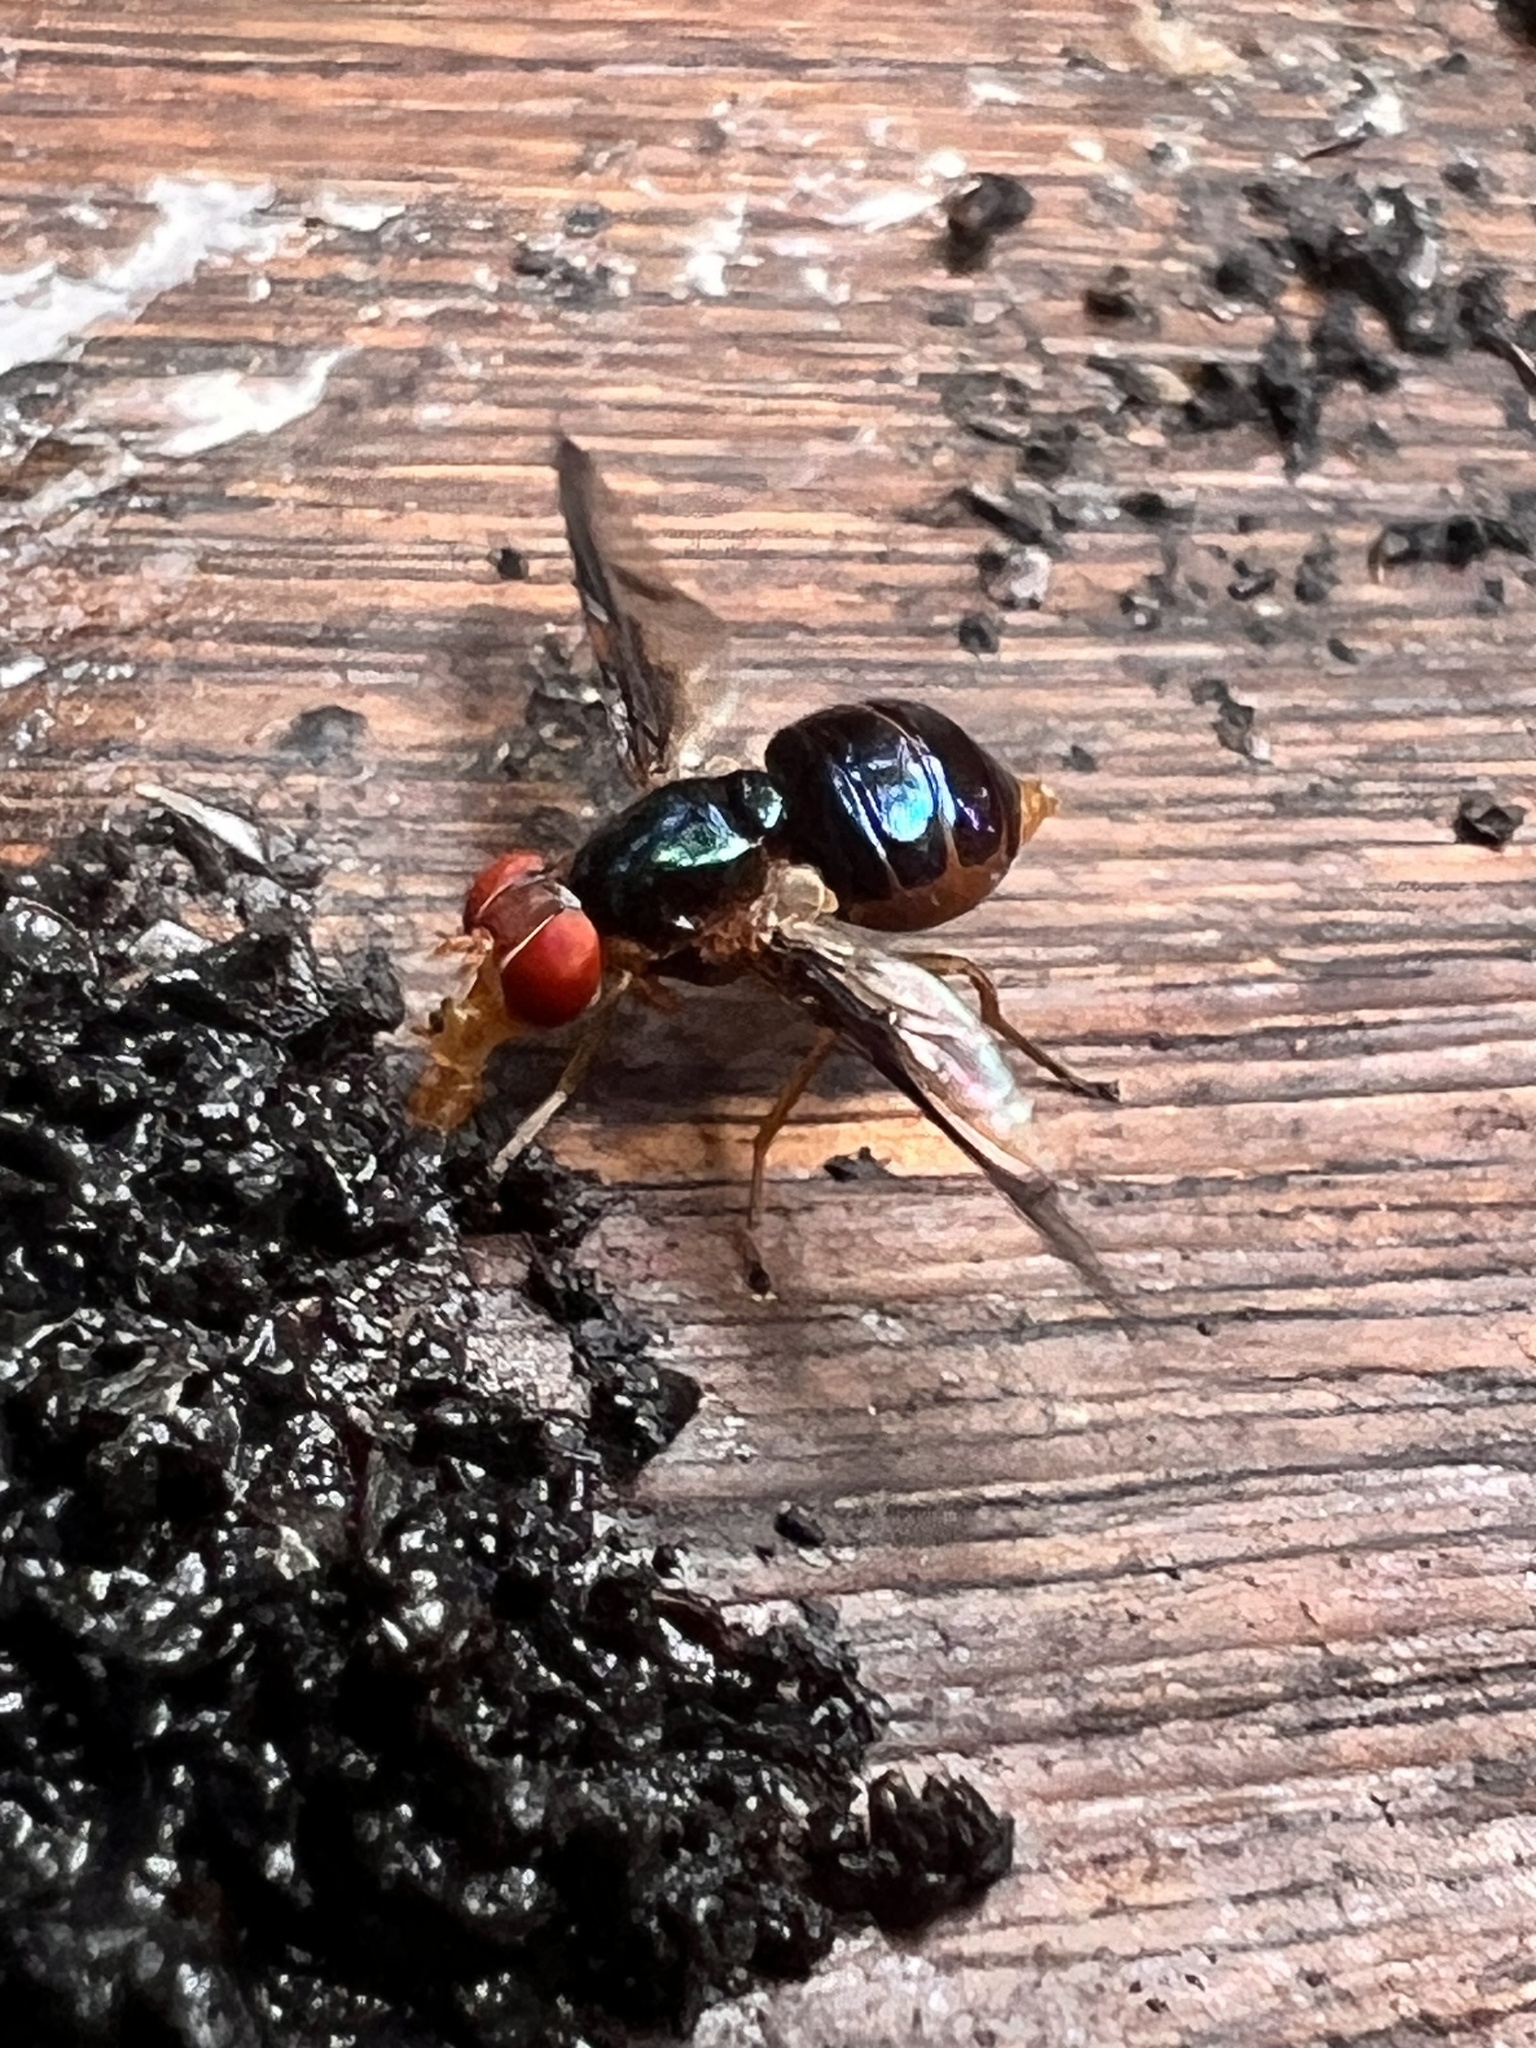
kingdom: Animalia
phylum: Arthropoda
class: Insecta
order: Diptera
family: Platystomatidae
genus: Lamprogaster
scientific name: Lamprogaster stenoparia
